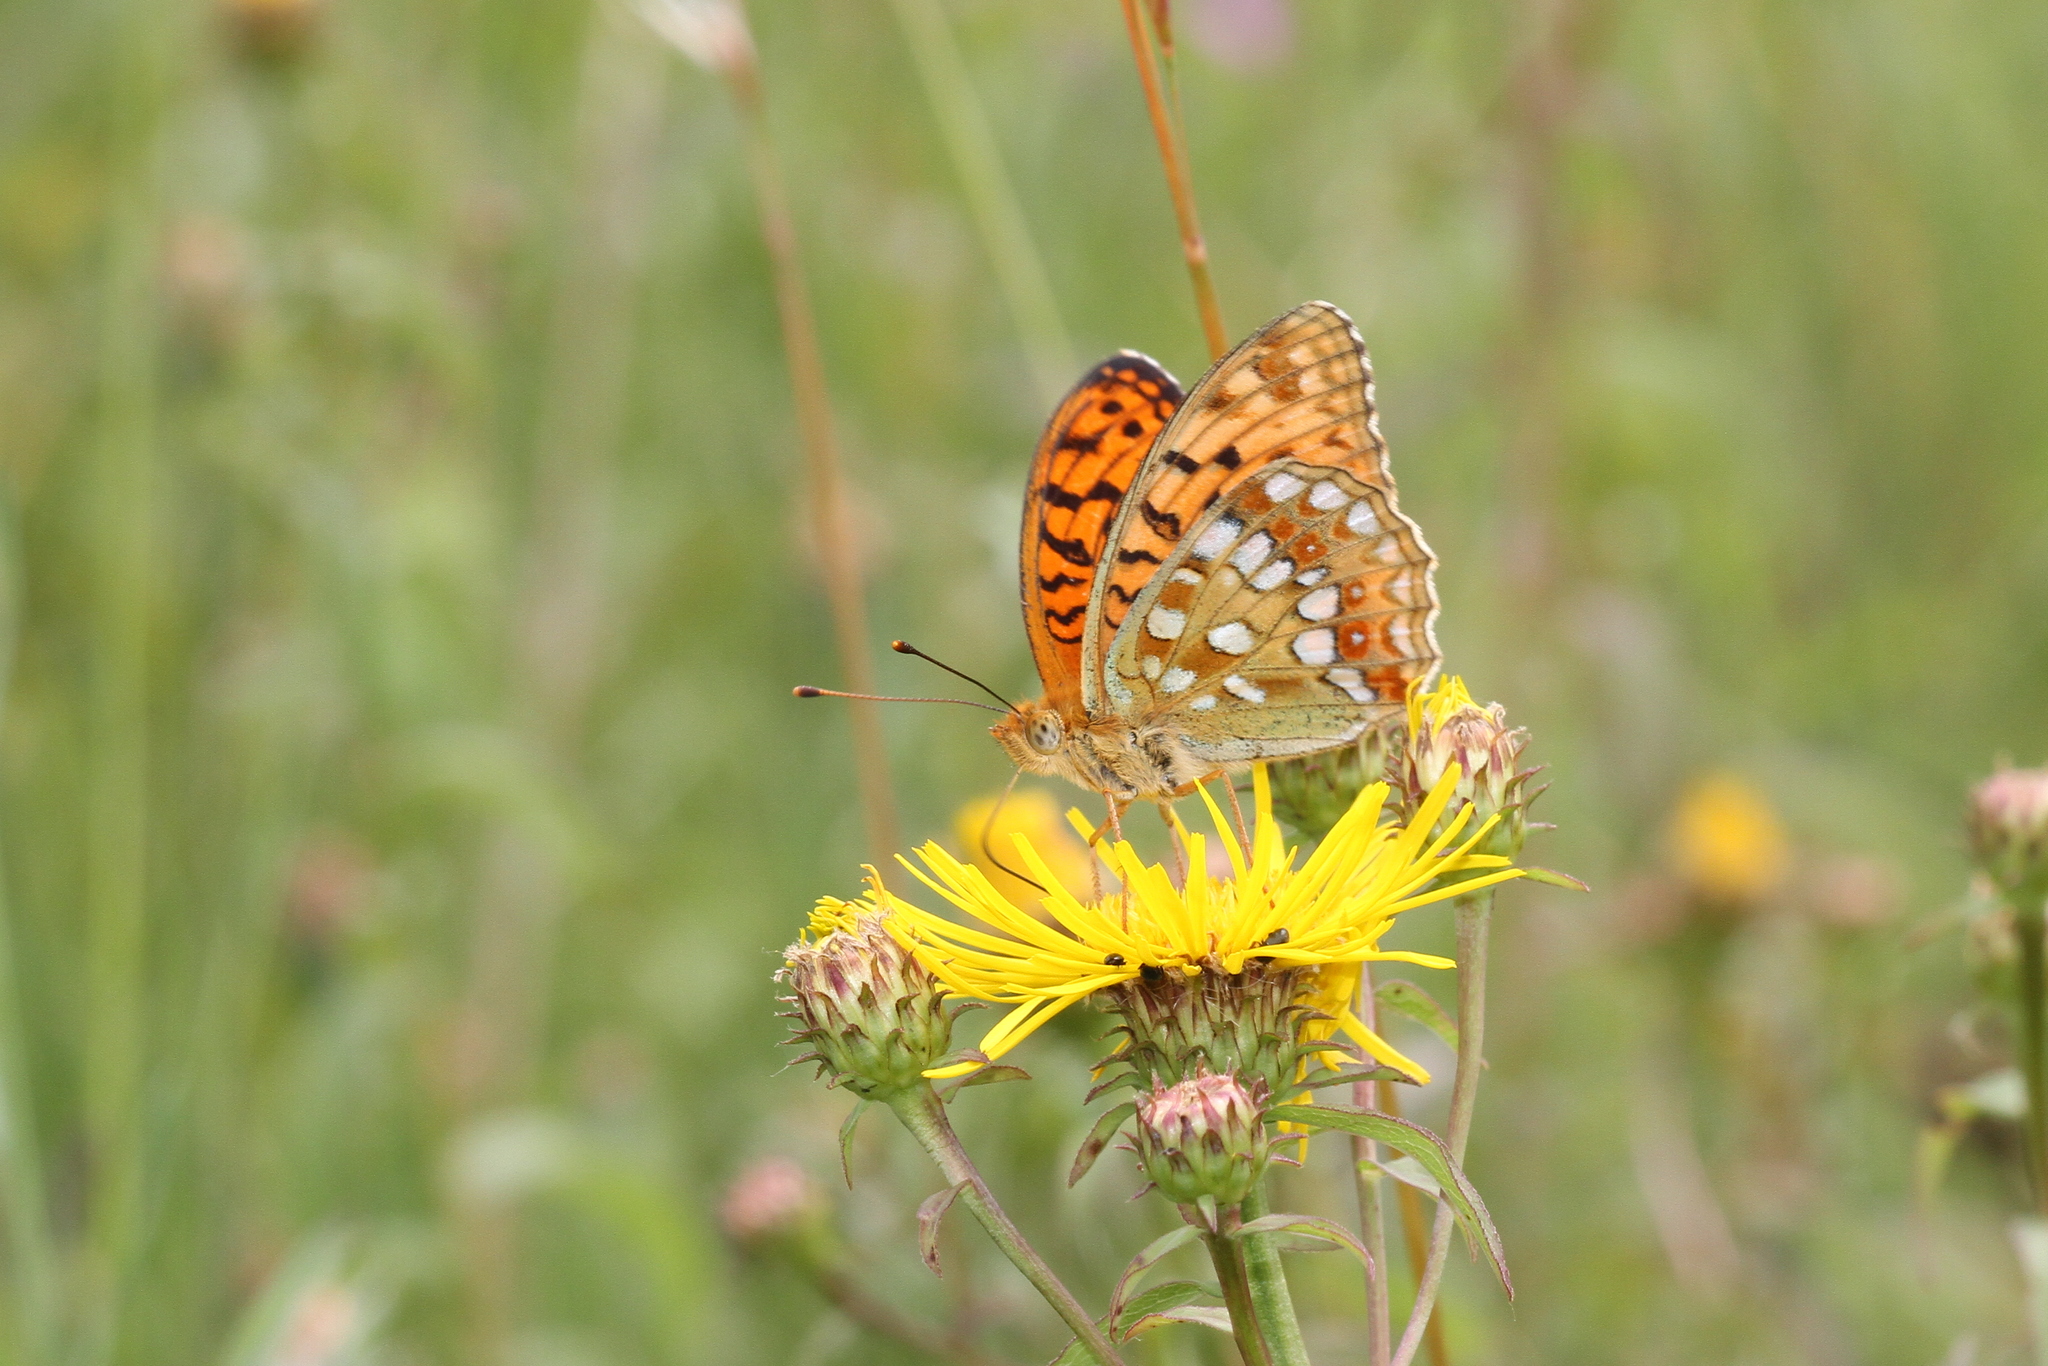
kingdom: Animalia
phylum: Arthropoda
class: Insecta
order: Lepidoptera
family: Nymphalidae
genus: Fabriciana
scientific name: Fabriciana adippe
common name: High brown fritillary
